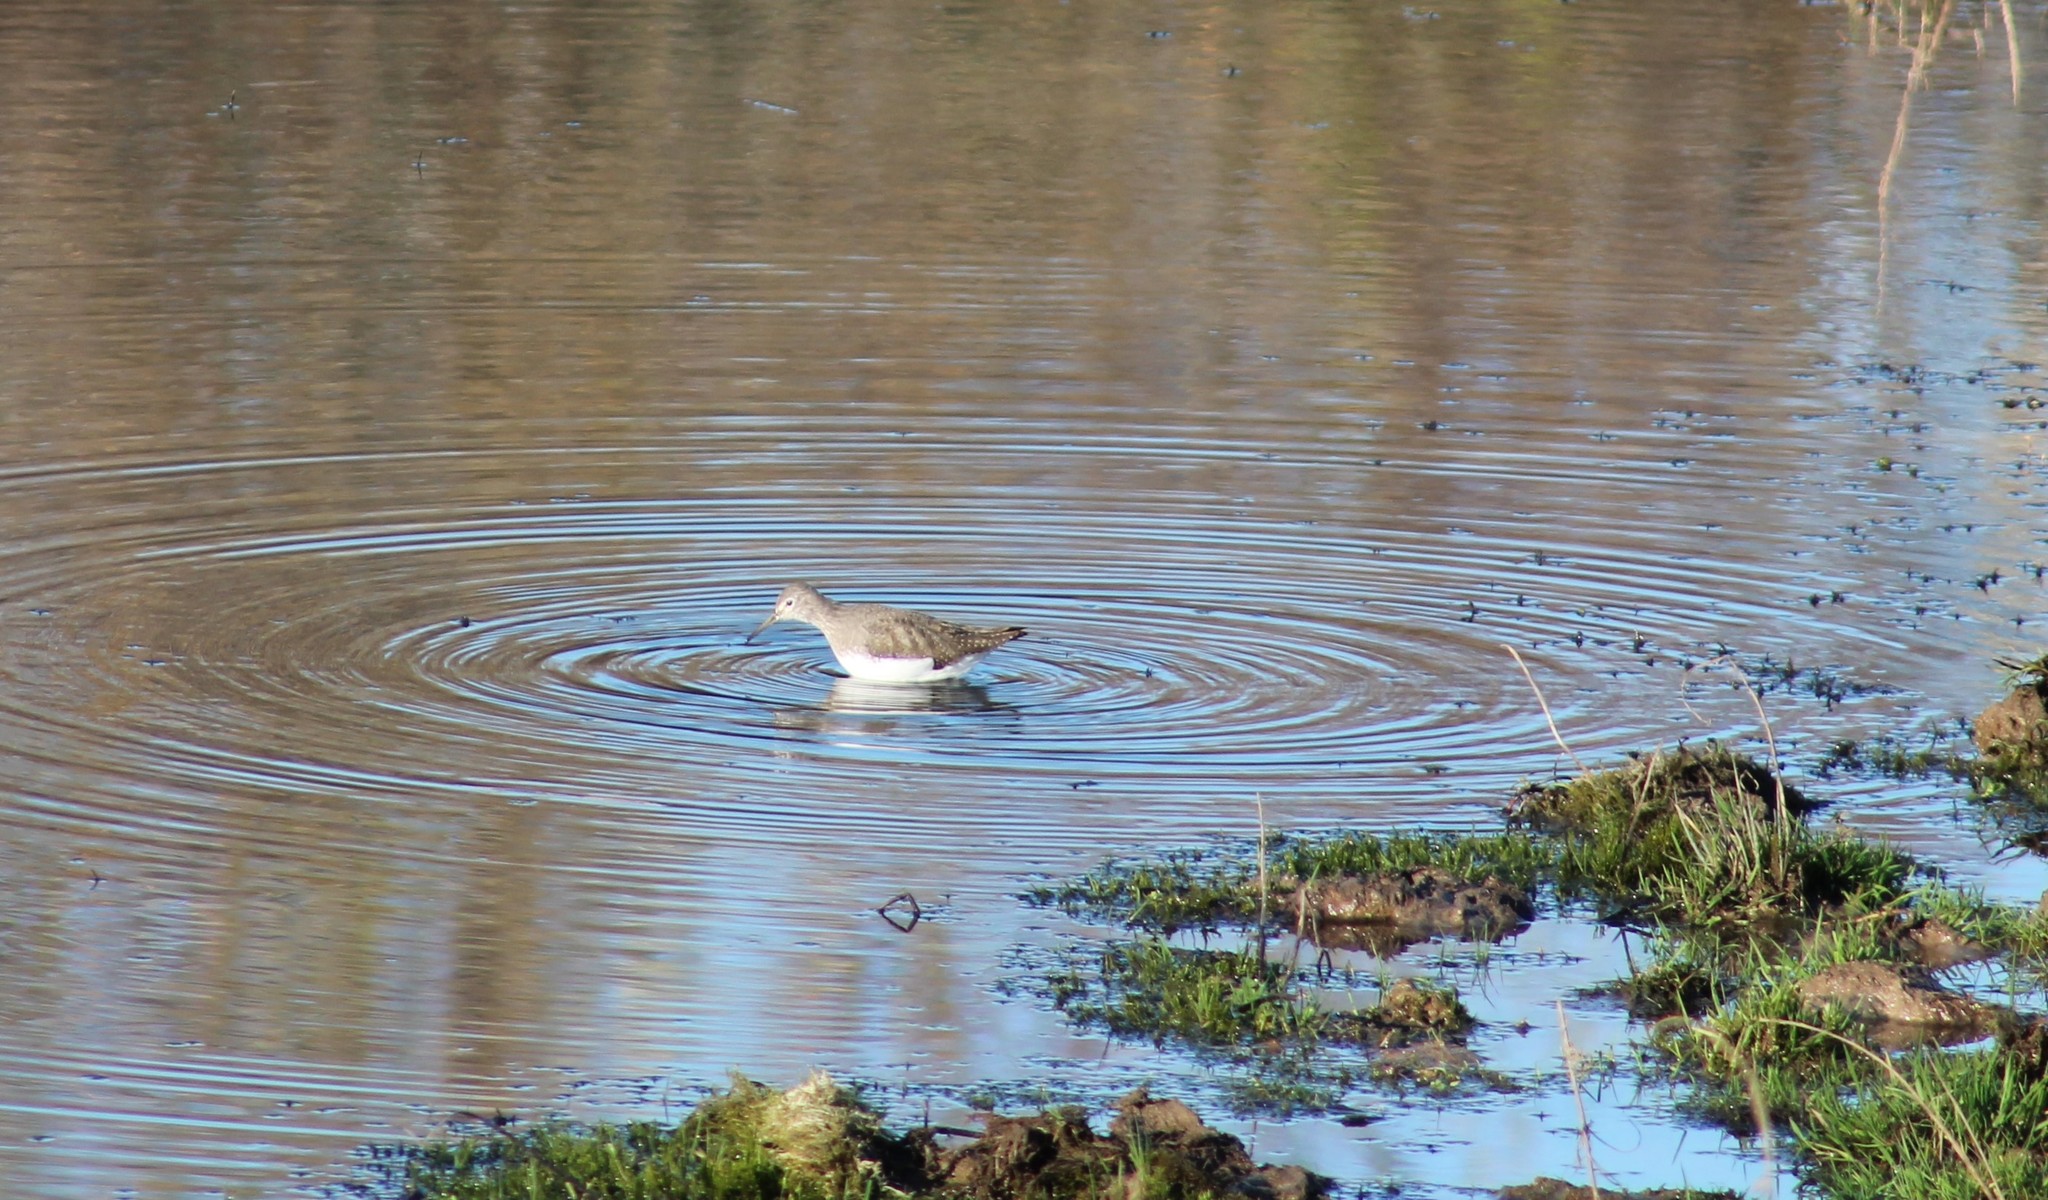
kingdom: Animalia
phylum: Chordata
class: Aves
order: Charadriiformes
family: Scolopacidae
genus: Tringa
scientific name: Tringa ochropus
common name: Green sandpiper
